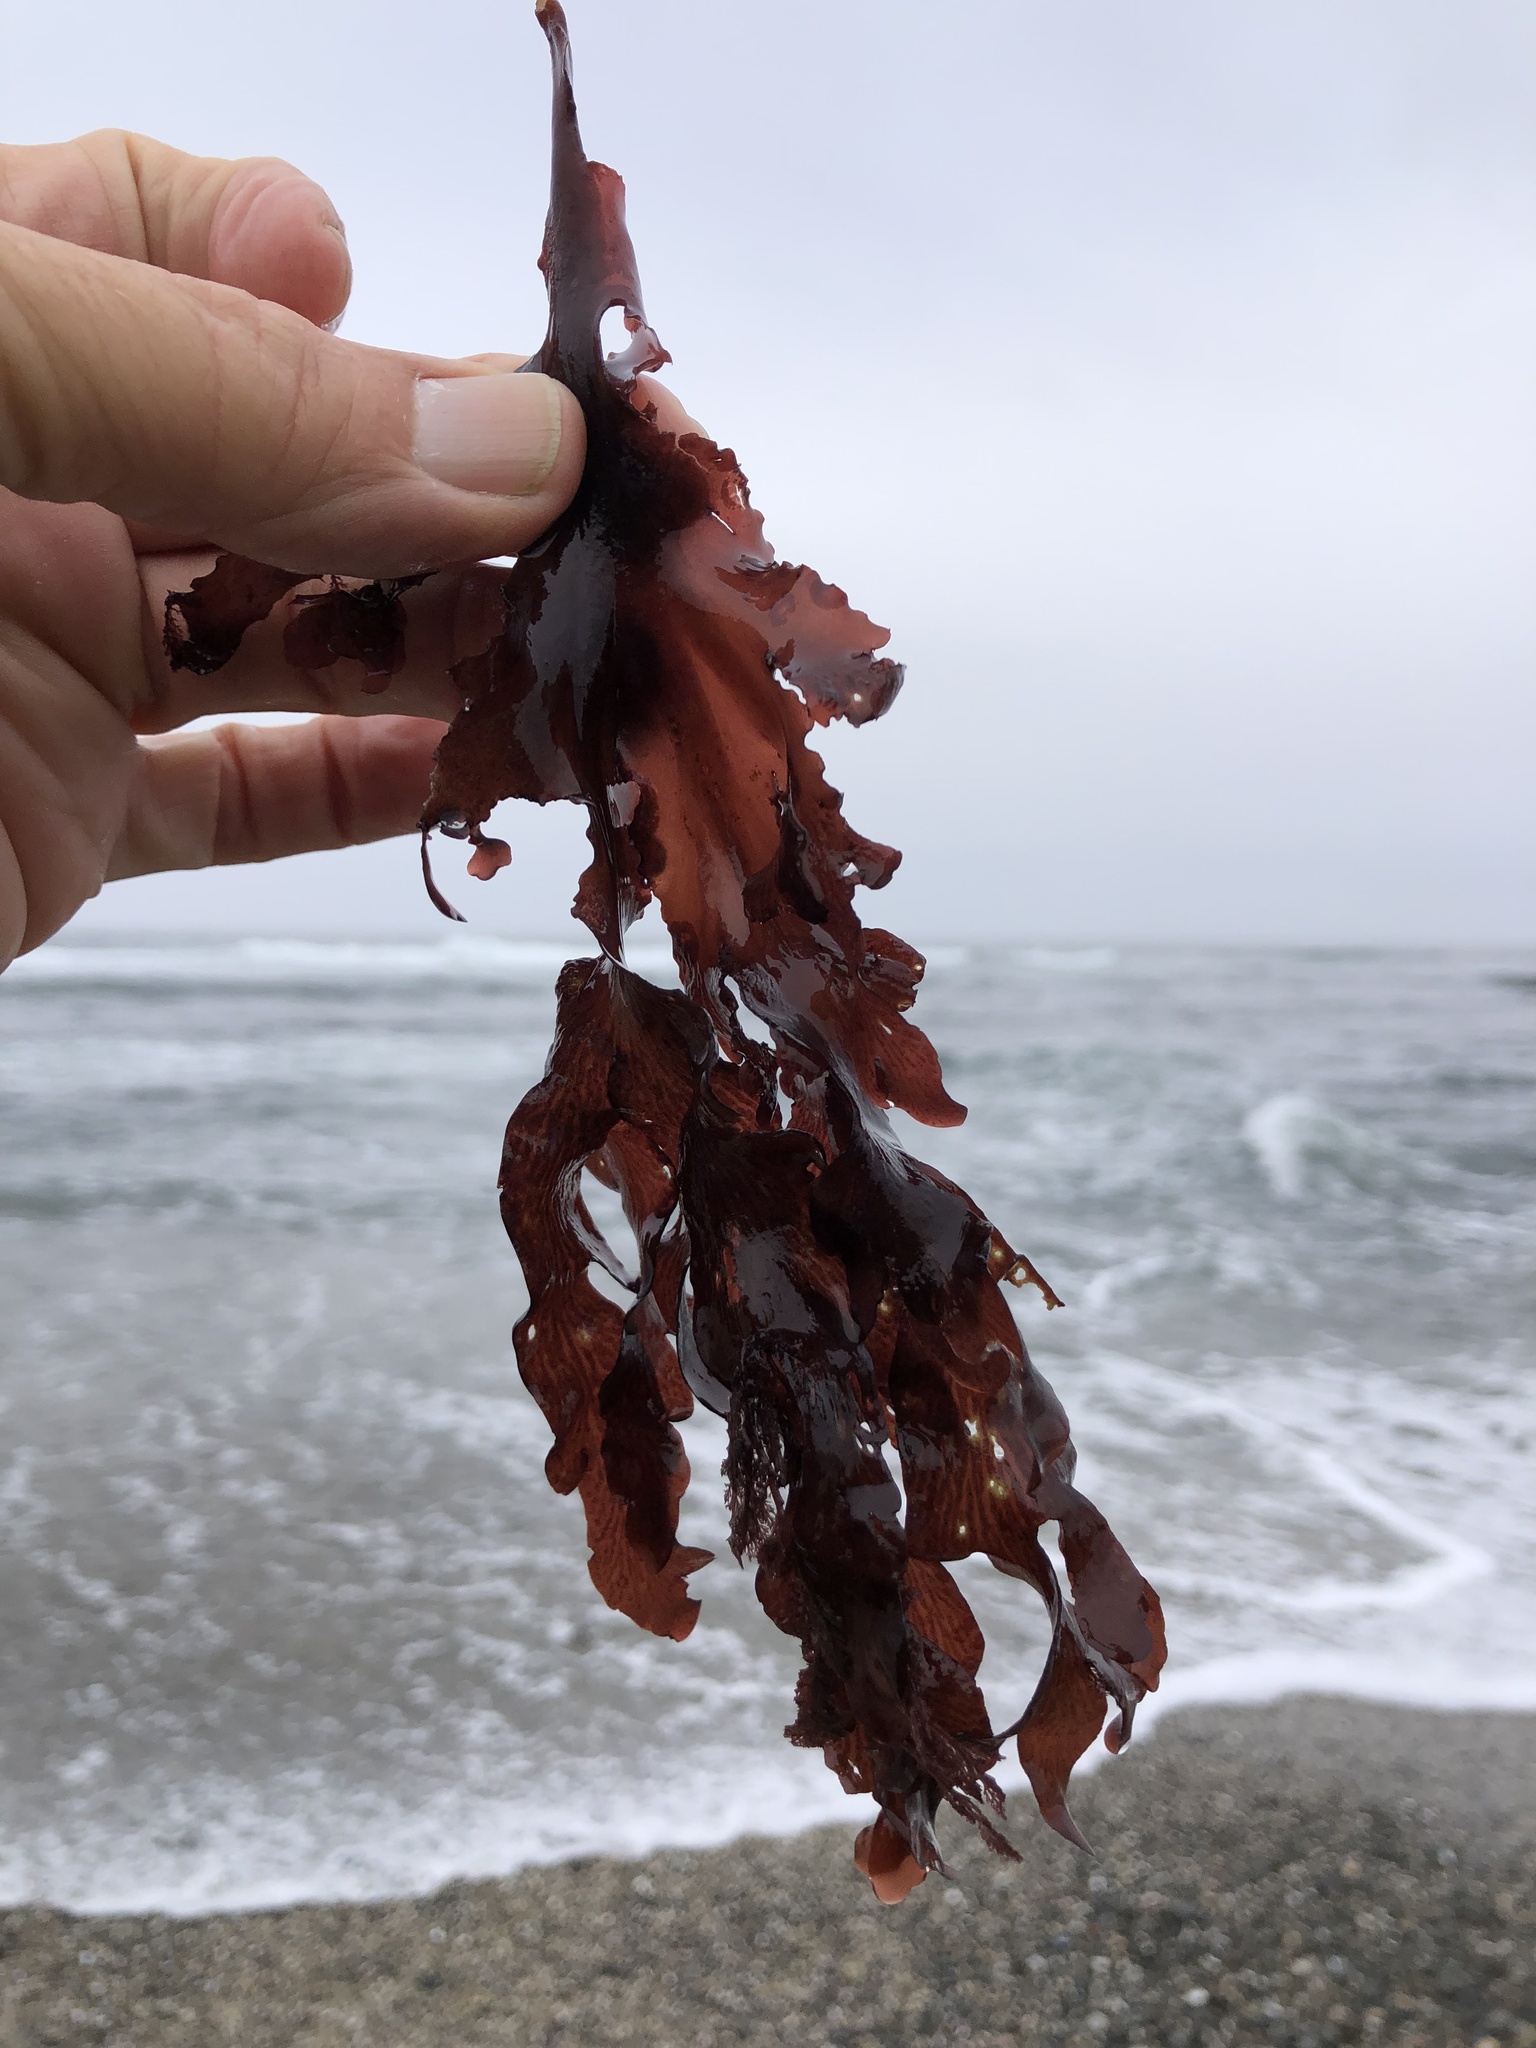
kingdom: Plantae
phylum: Rhodophyta
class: Florideophyceae
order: Ceramiales
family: Delesseriaceae
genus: Hymenena
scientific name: Hymenena flabelligera
